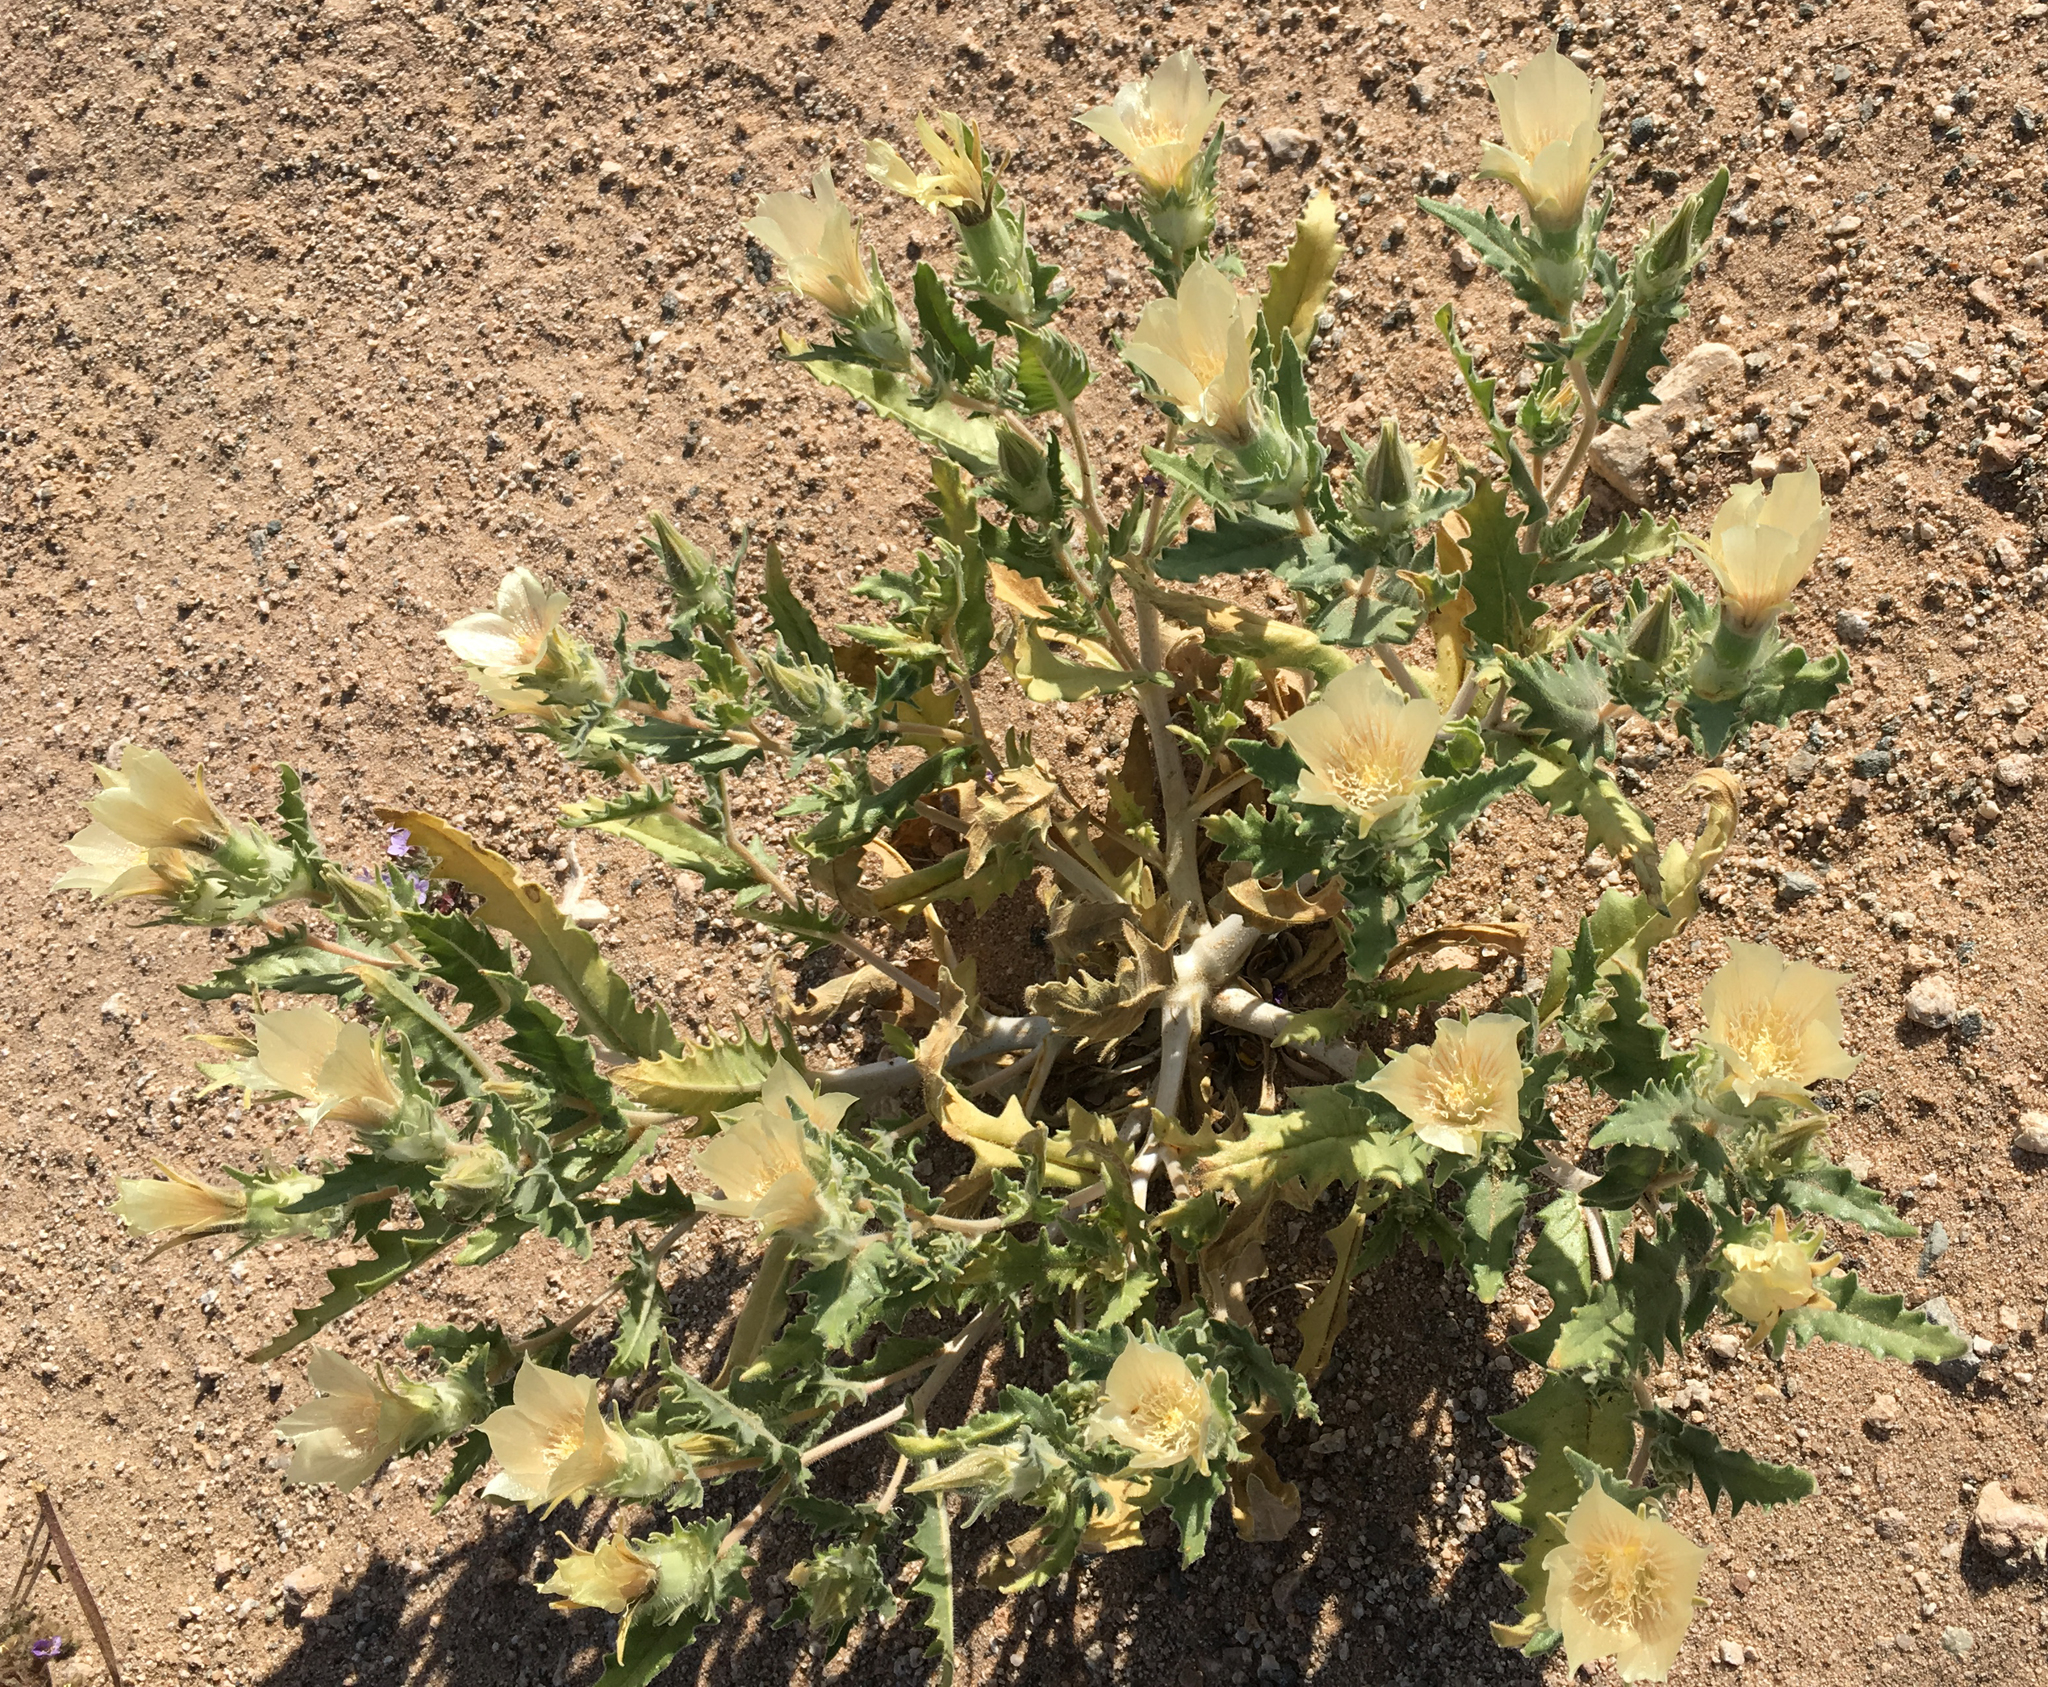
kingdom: Plantae
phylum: Tracheophyta
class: Magnoliopsida
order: Cornales
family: Loasaceae
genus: Mentzelia
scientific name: Mentzelia involucrata
